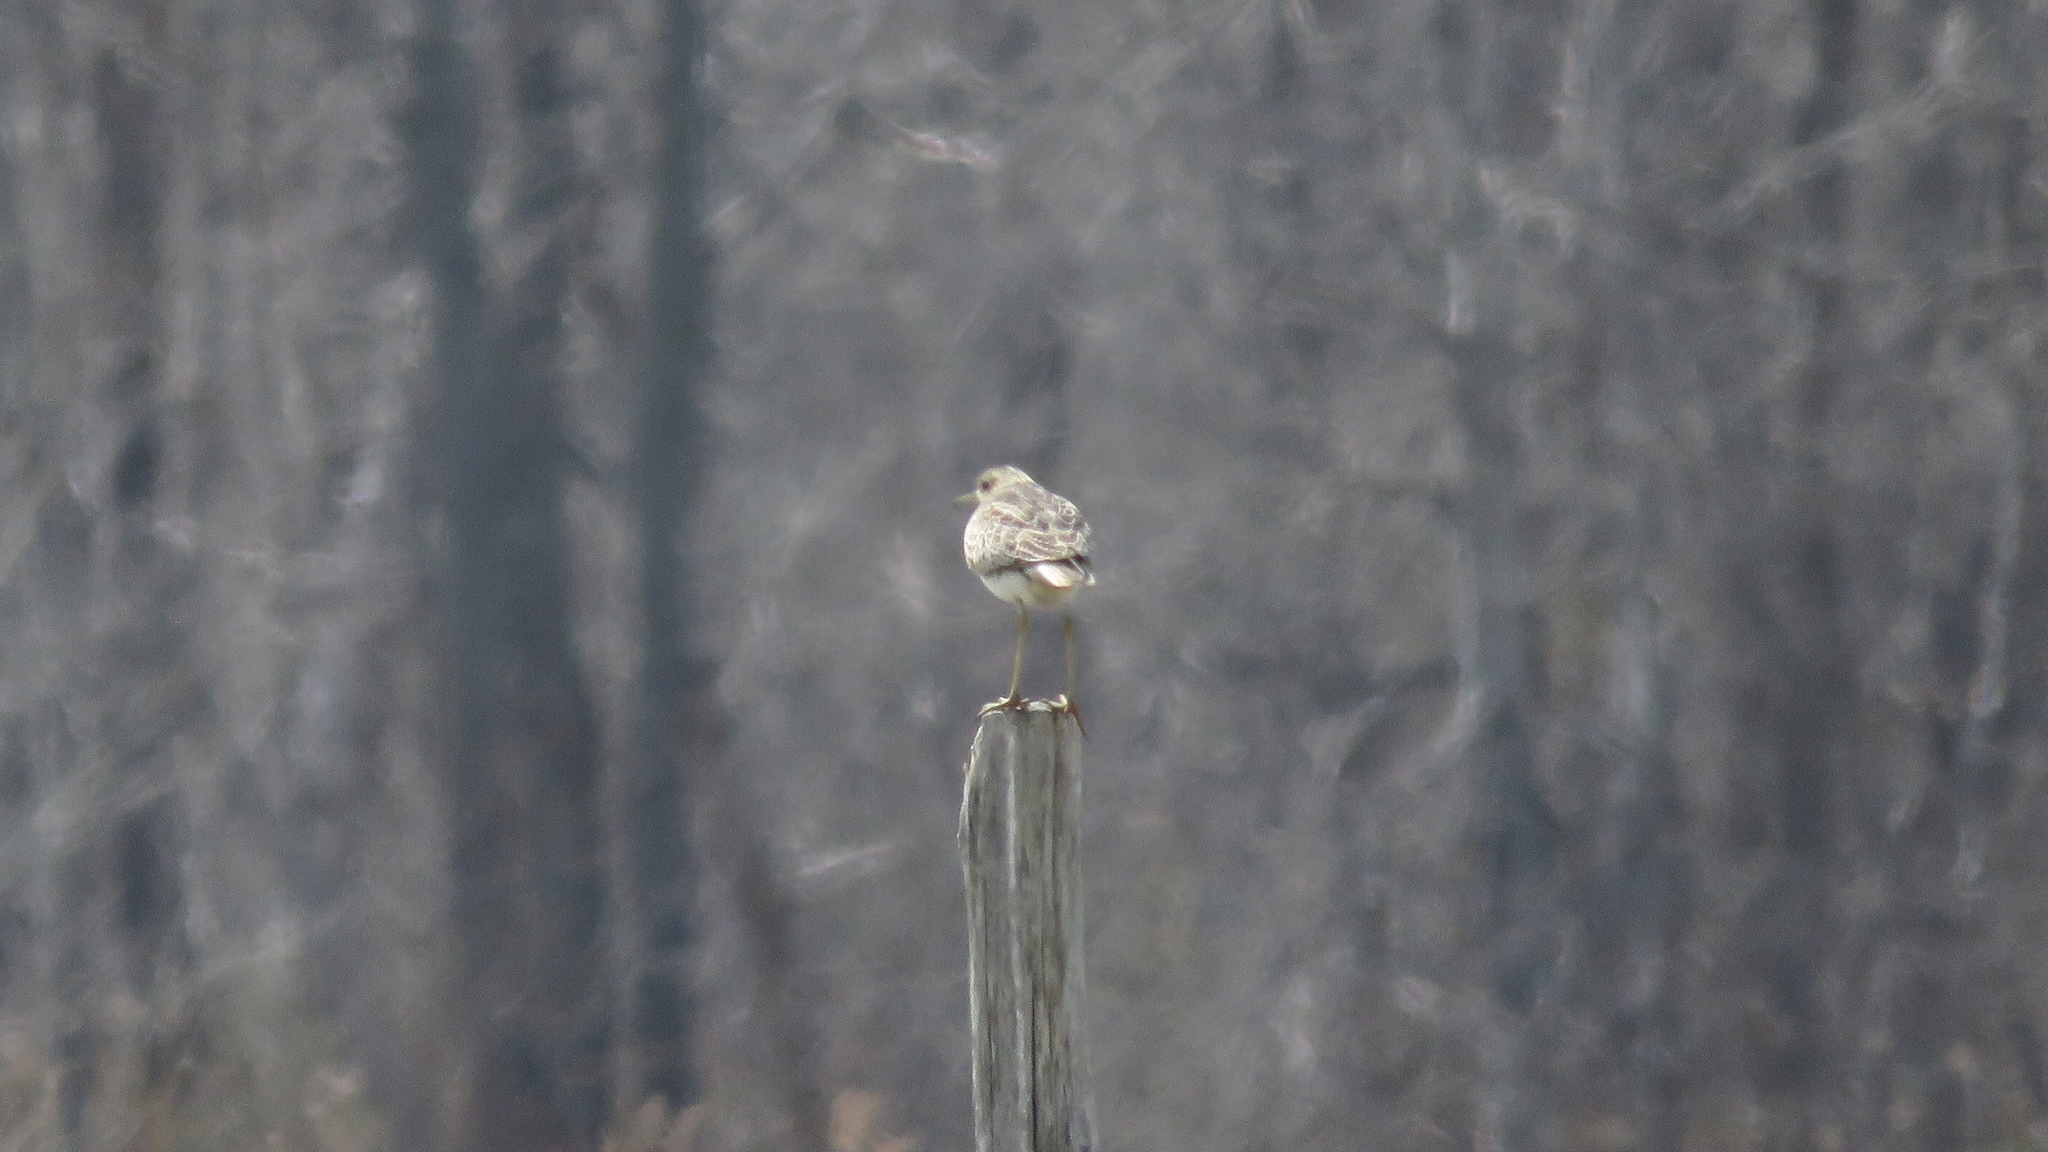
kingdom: Animalia
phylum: Chordata
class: Aves
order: Charadriiformes
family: Scolopacidae
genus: Bartramia
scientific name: Bartramia longicauda
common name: Upland sandpiper
